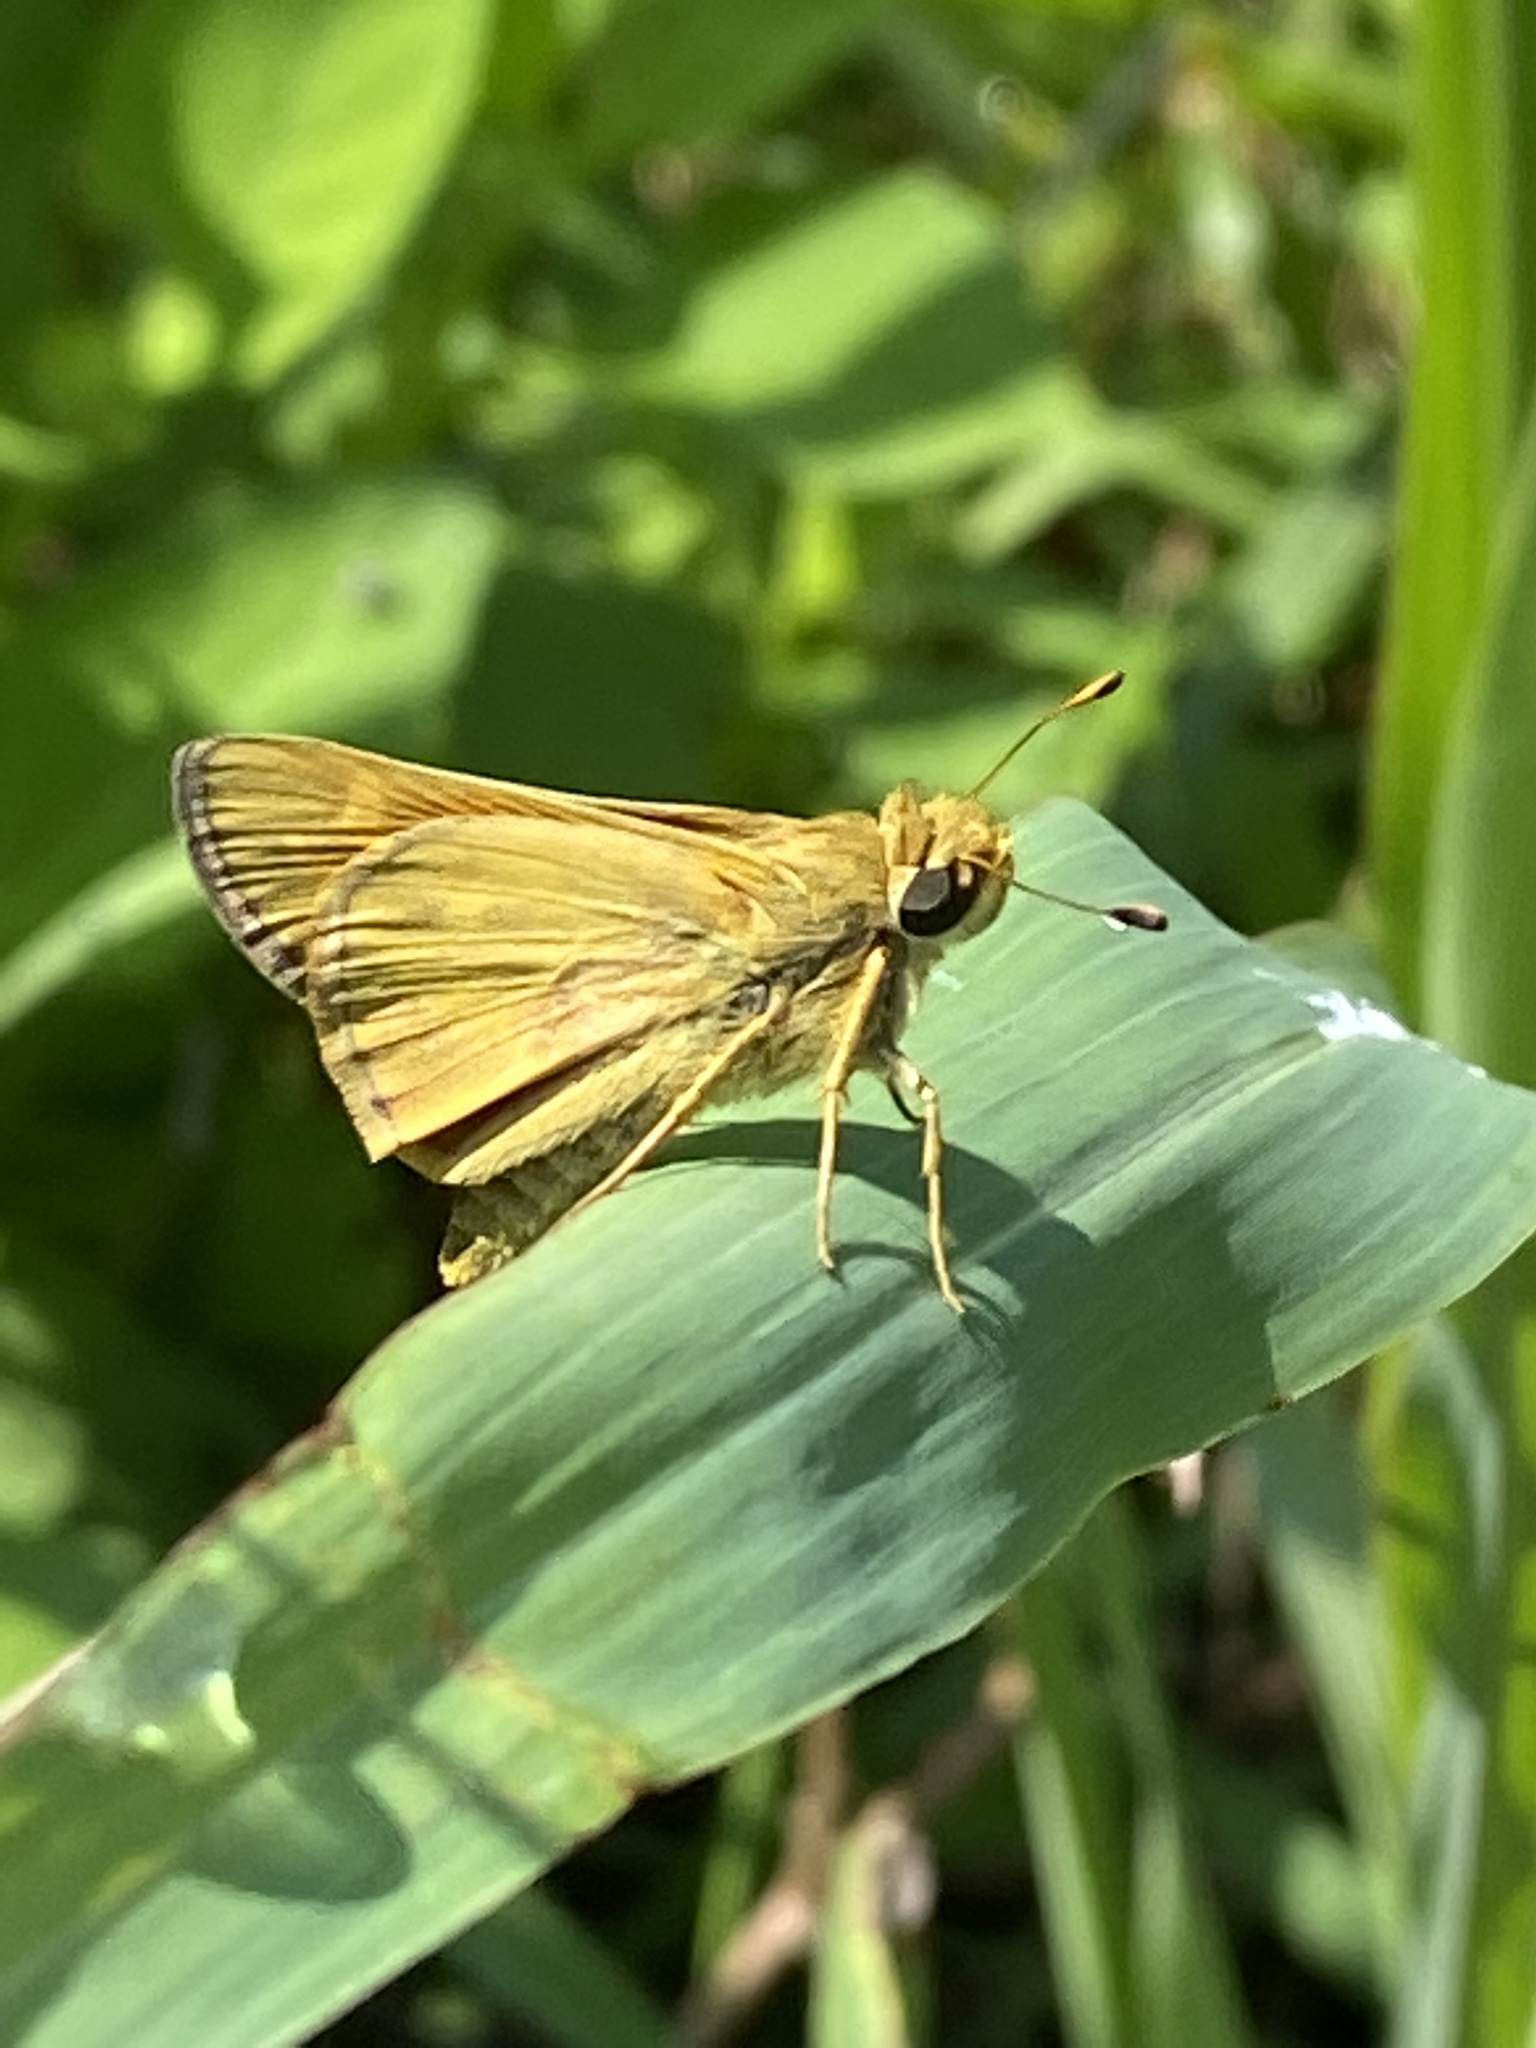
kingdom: Animalia
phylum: Arthropoda
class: Insecta
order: Lepidoptera
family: Hesperiidae
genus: Atalopedes
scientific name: Atalopedes
